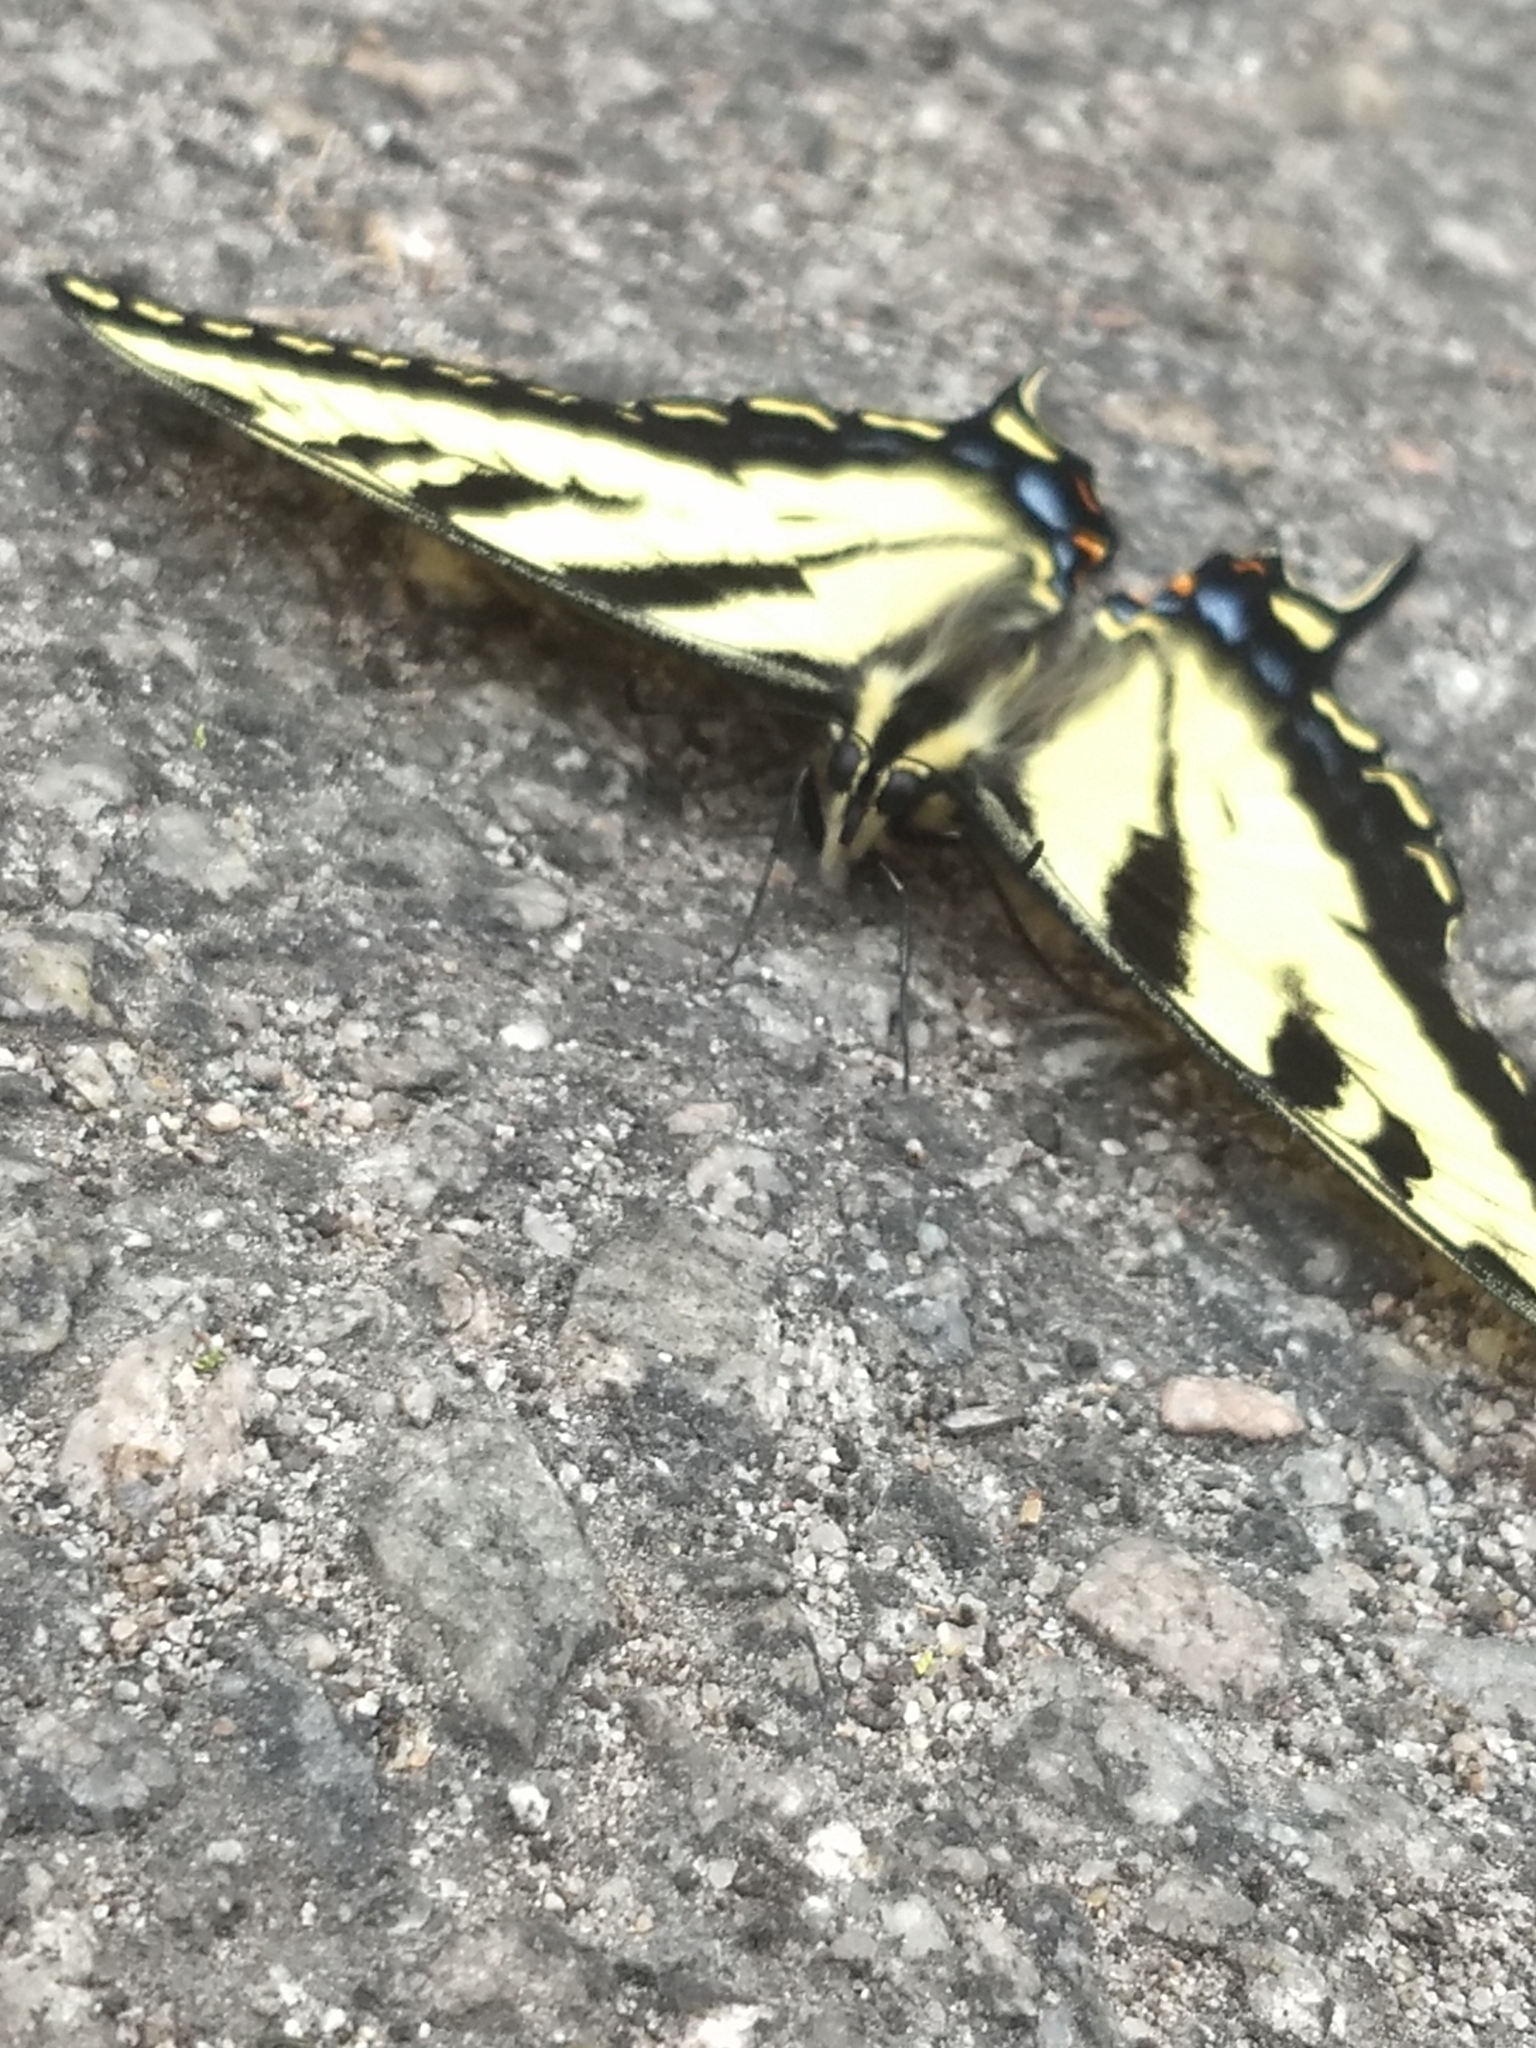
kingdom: Animalia
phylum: Arthropoda
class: Insecta
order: Lepidoptera
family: Papilionidae
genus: Papilio
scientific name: Papilio rutulus
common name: Western tiger swallowtail
